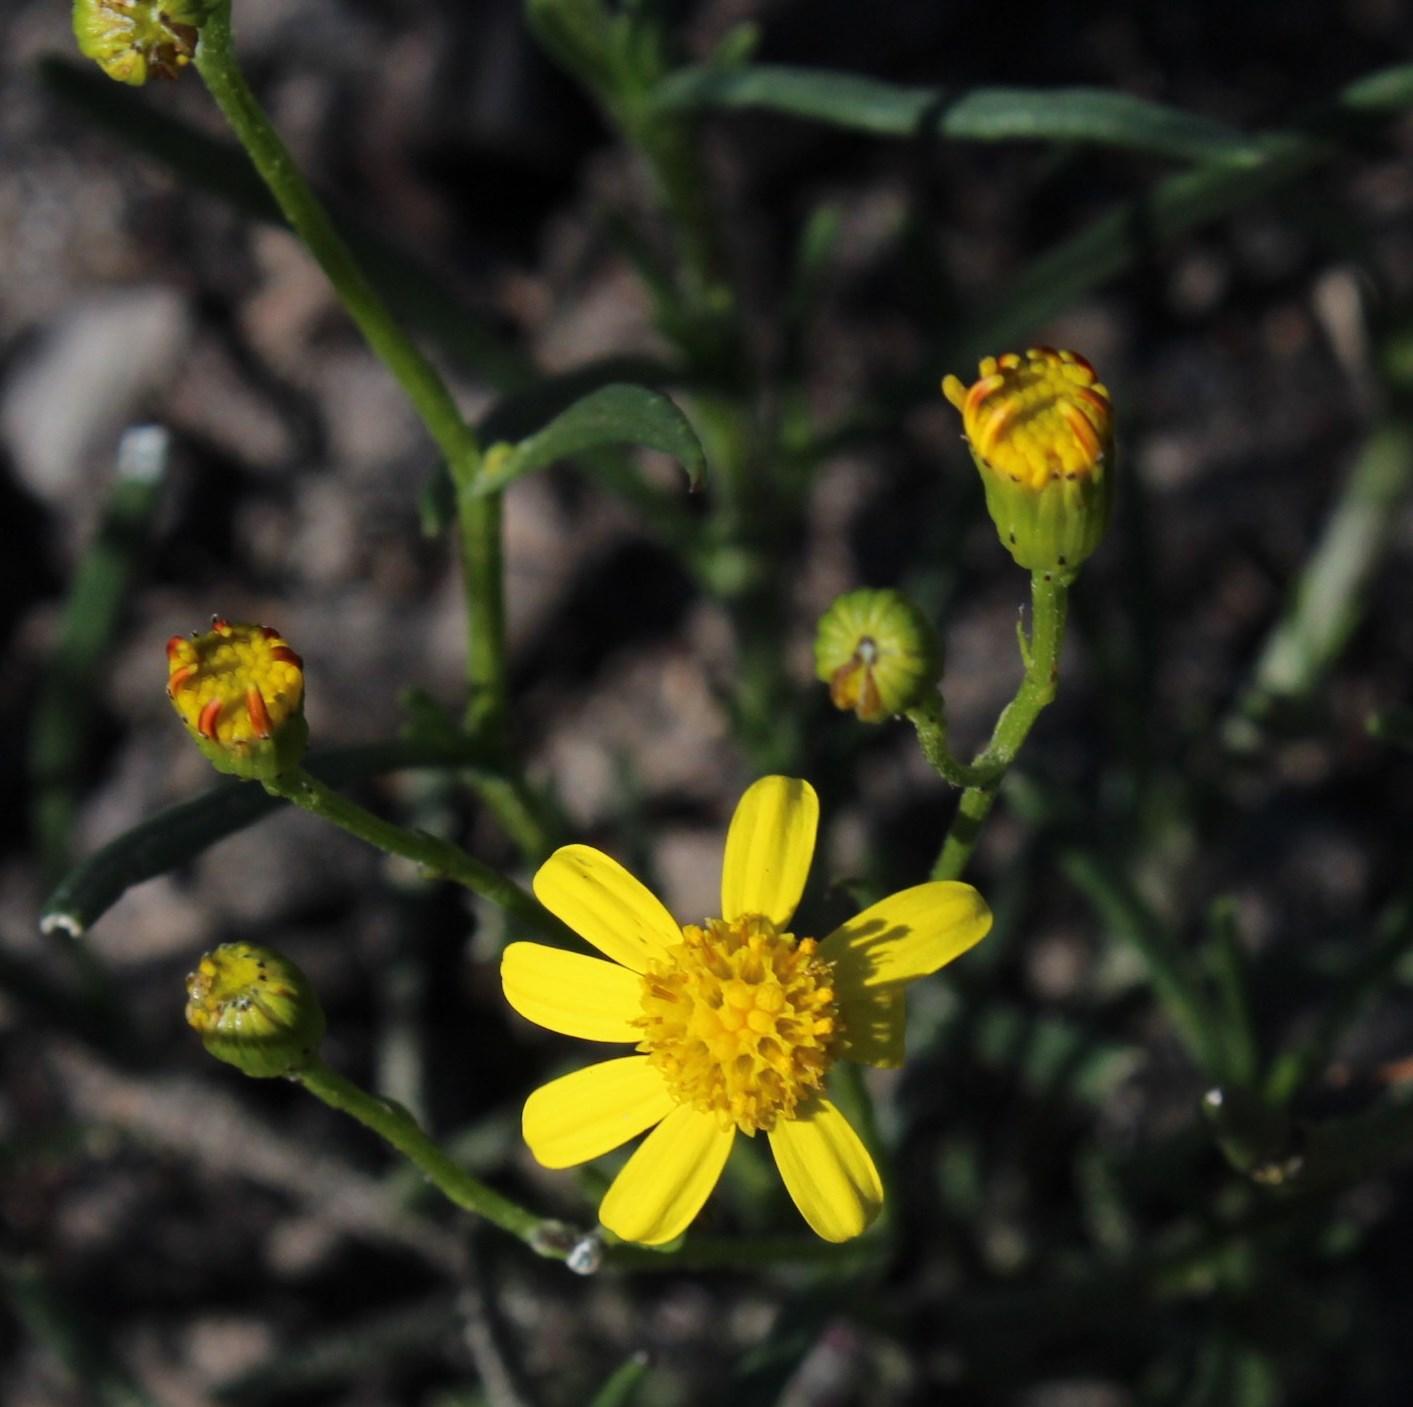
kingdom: Plantae
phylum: Tracheophyta
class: Magnoliopsida
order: Asterales
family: Asteraceae
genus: Senecio
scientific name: Senecio burchellii
